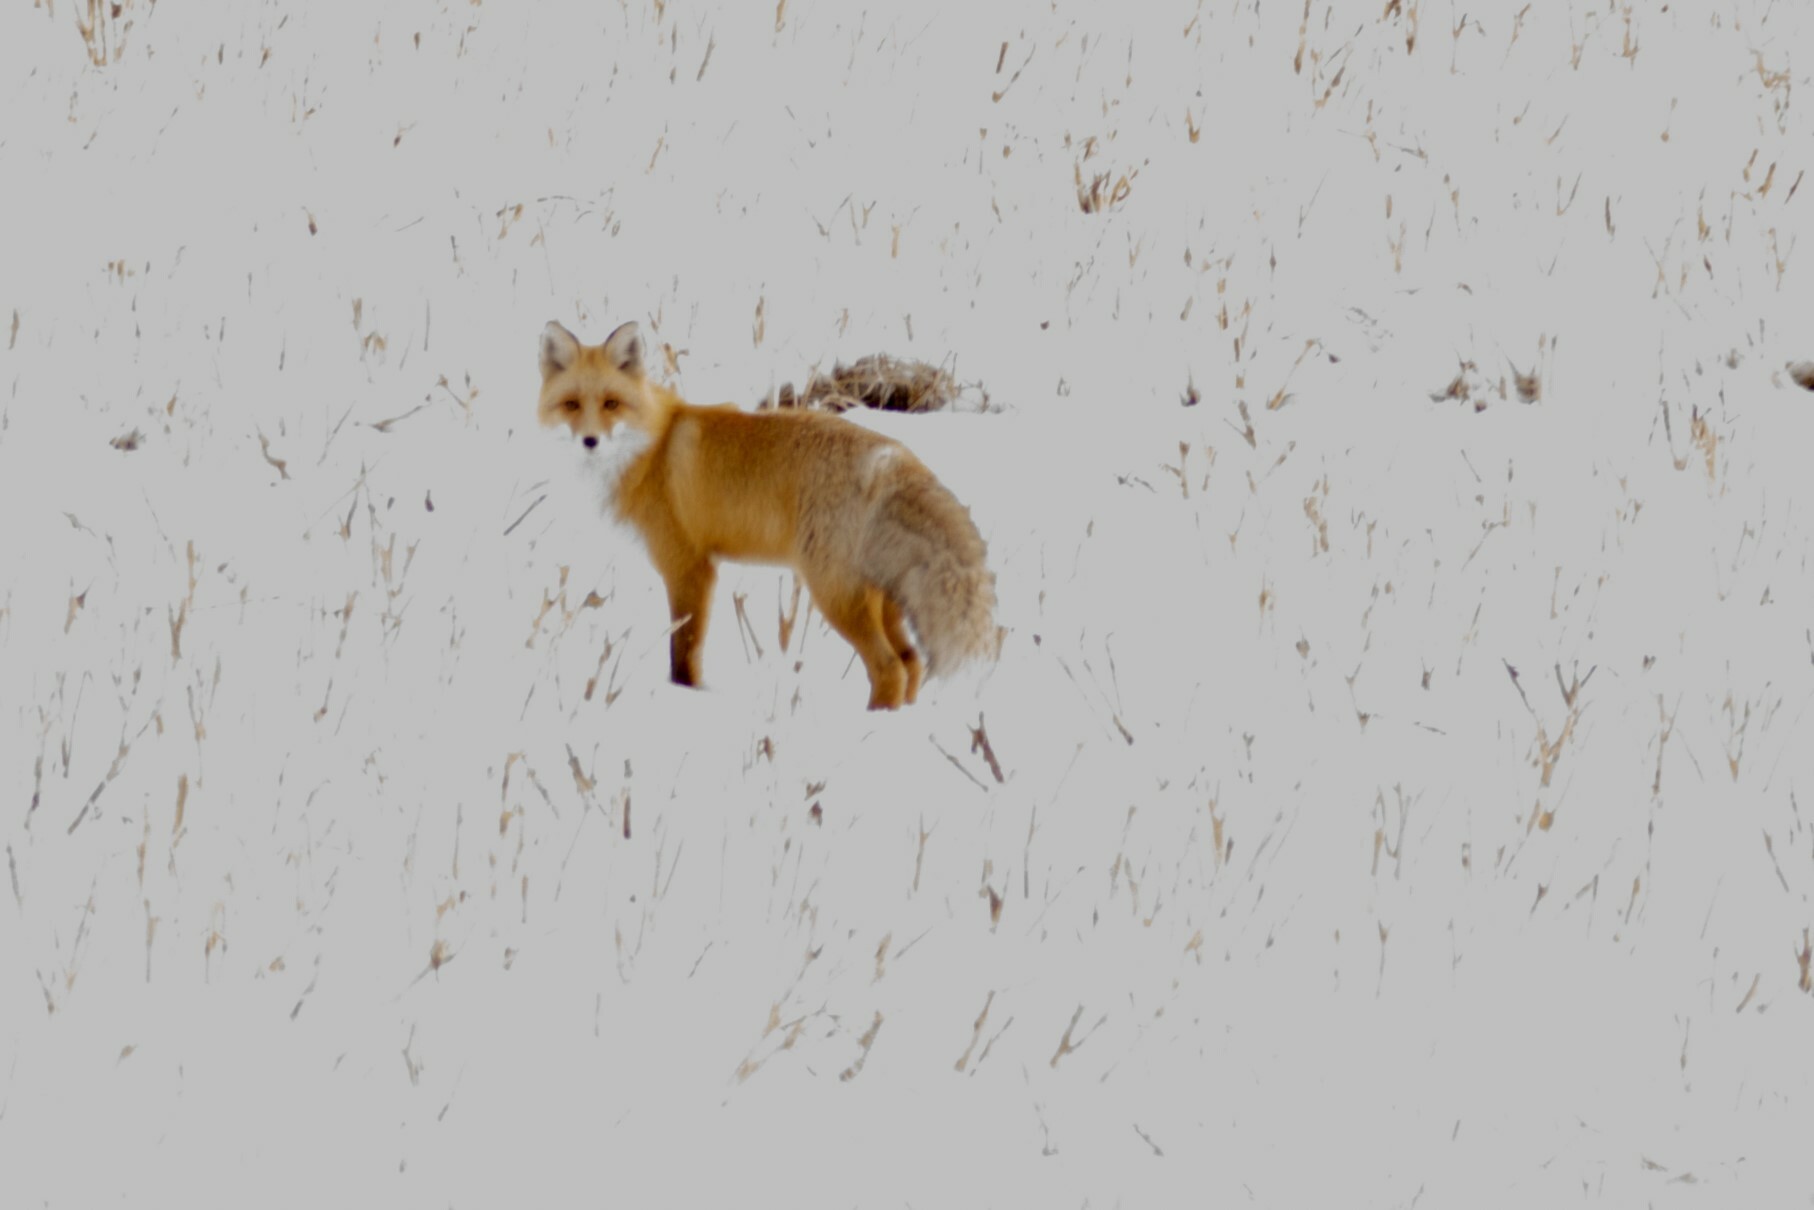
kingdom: Animalia
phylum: Chordata
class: Mammalia
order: Carnivora
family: Canidae
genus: Vulpes
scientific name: Vulpes vulpes
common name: Red fox
